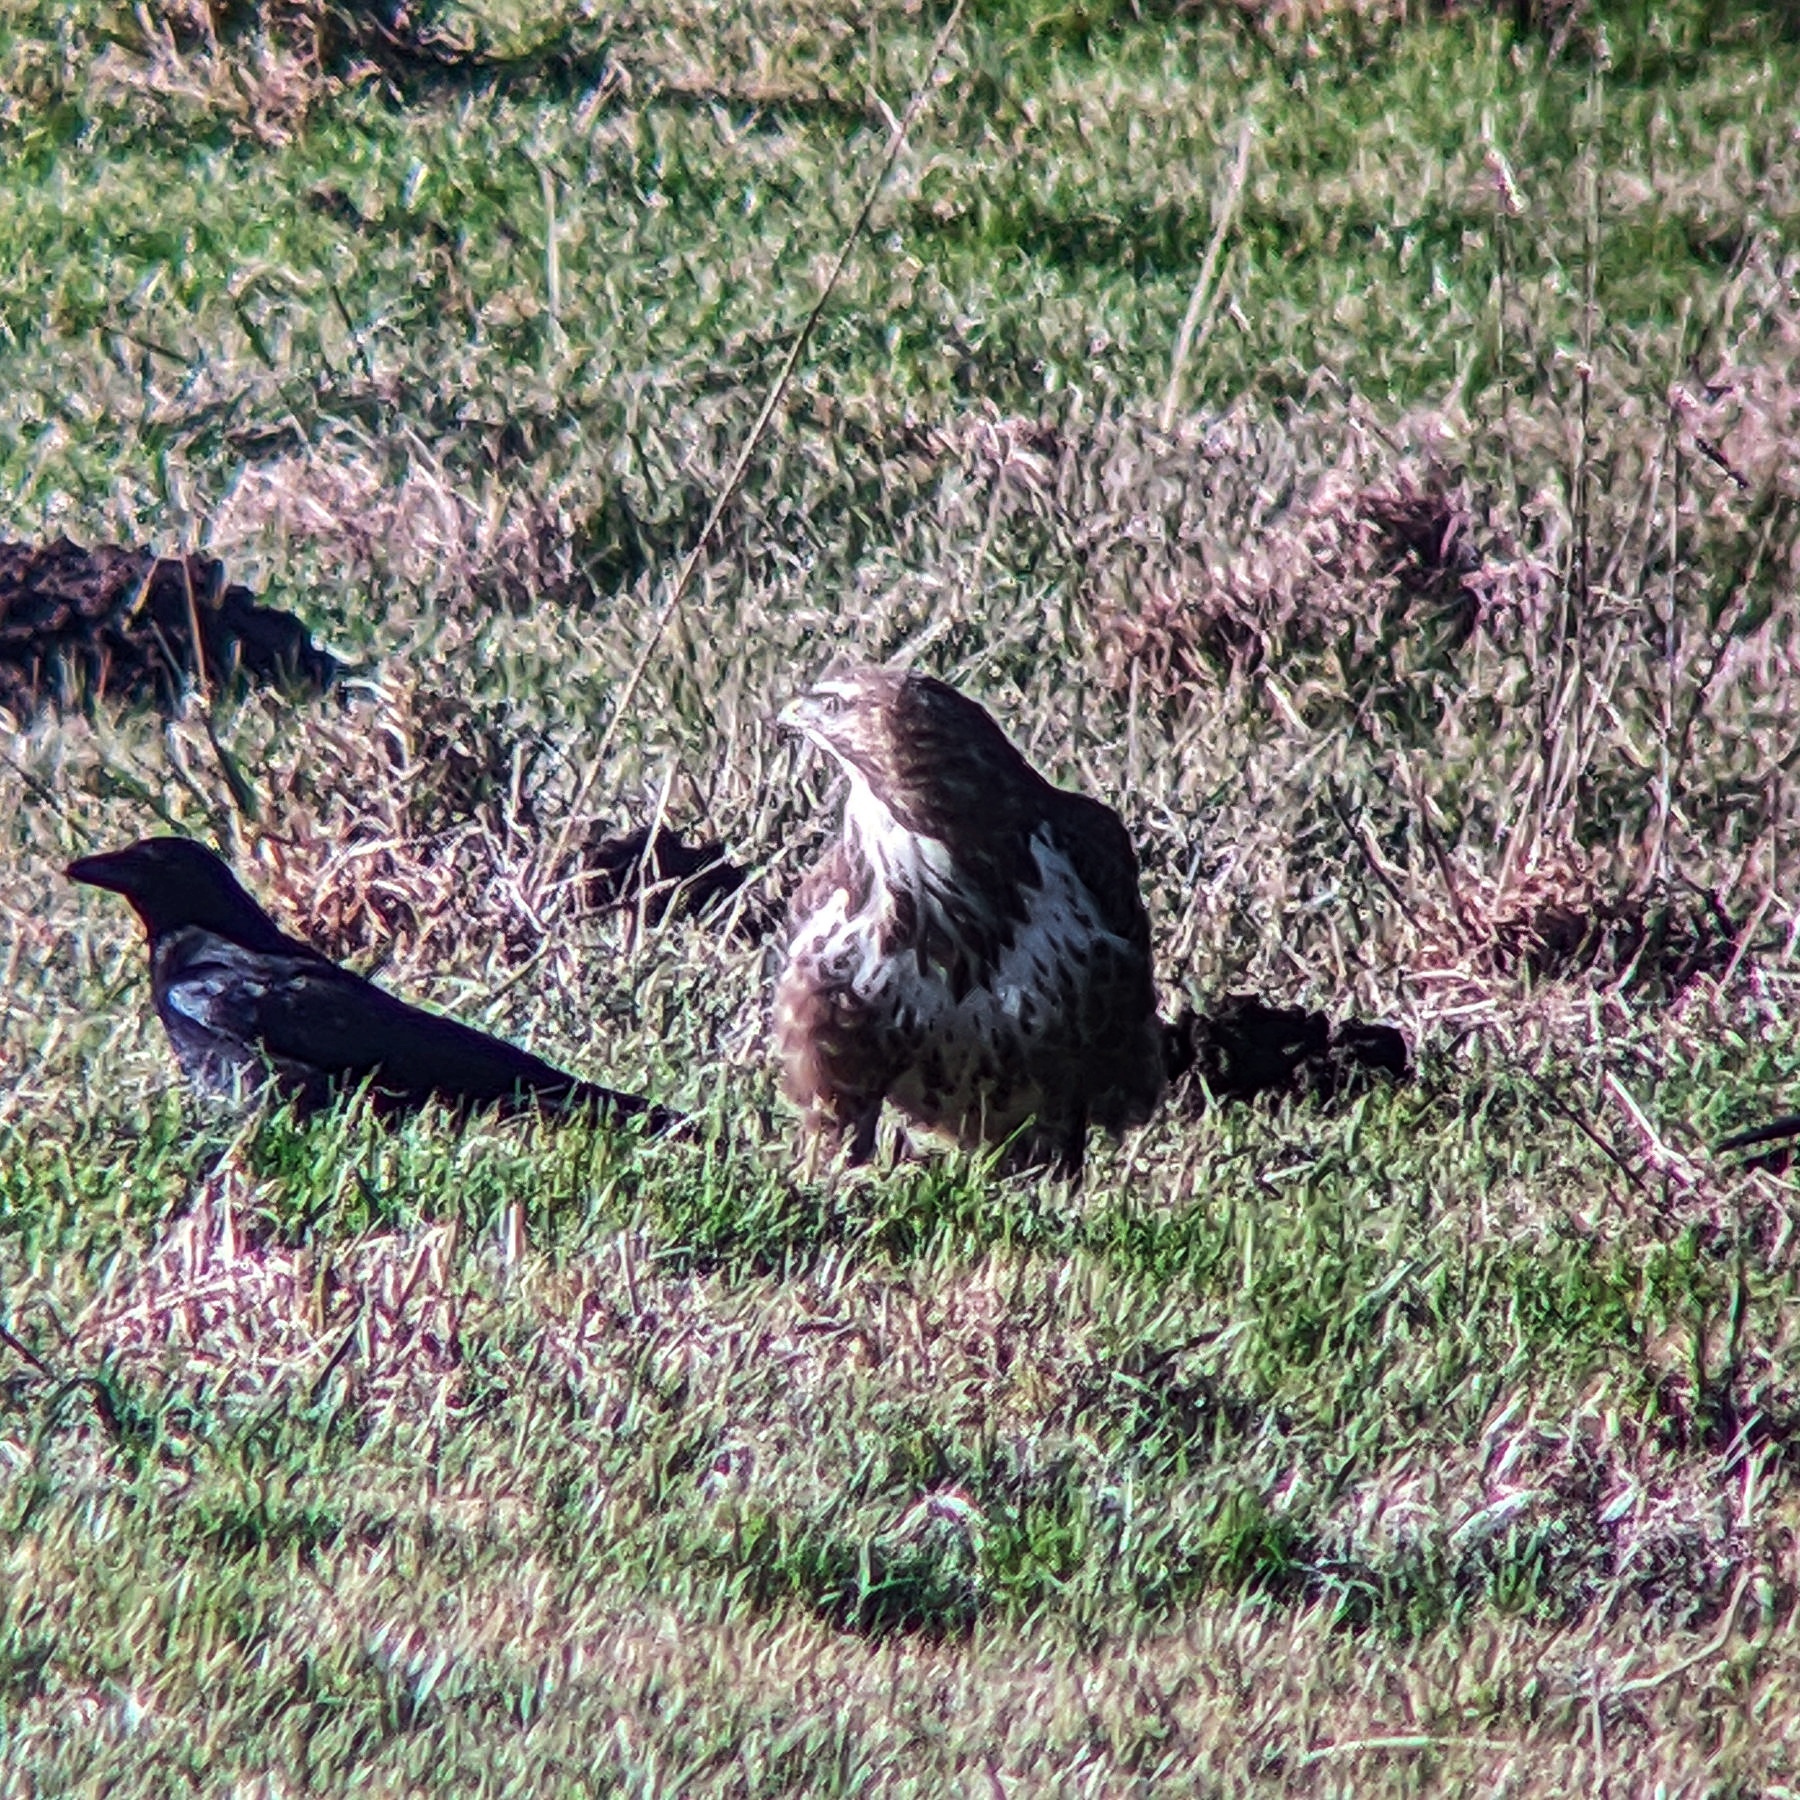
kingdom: Animalia
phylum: Chordata
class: Aves
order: Accipitriformes
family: Accipitridae
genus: Buteo
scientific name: Buteo buteo
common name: Common buzzard
